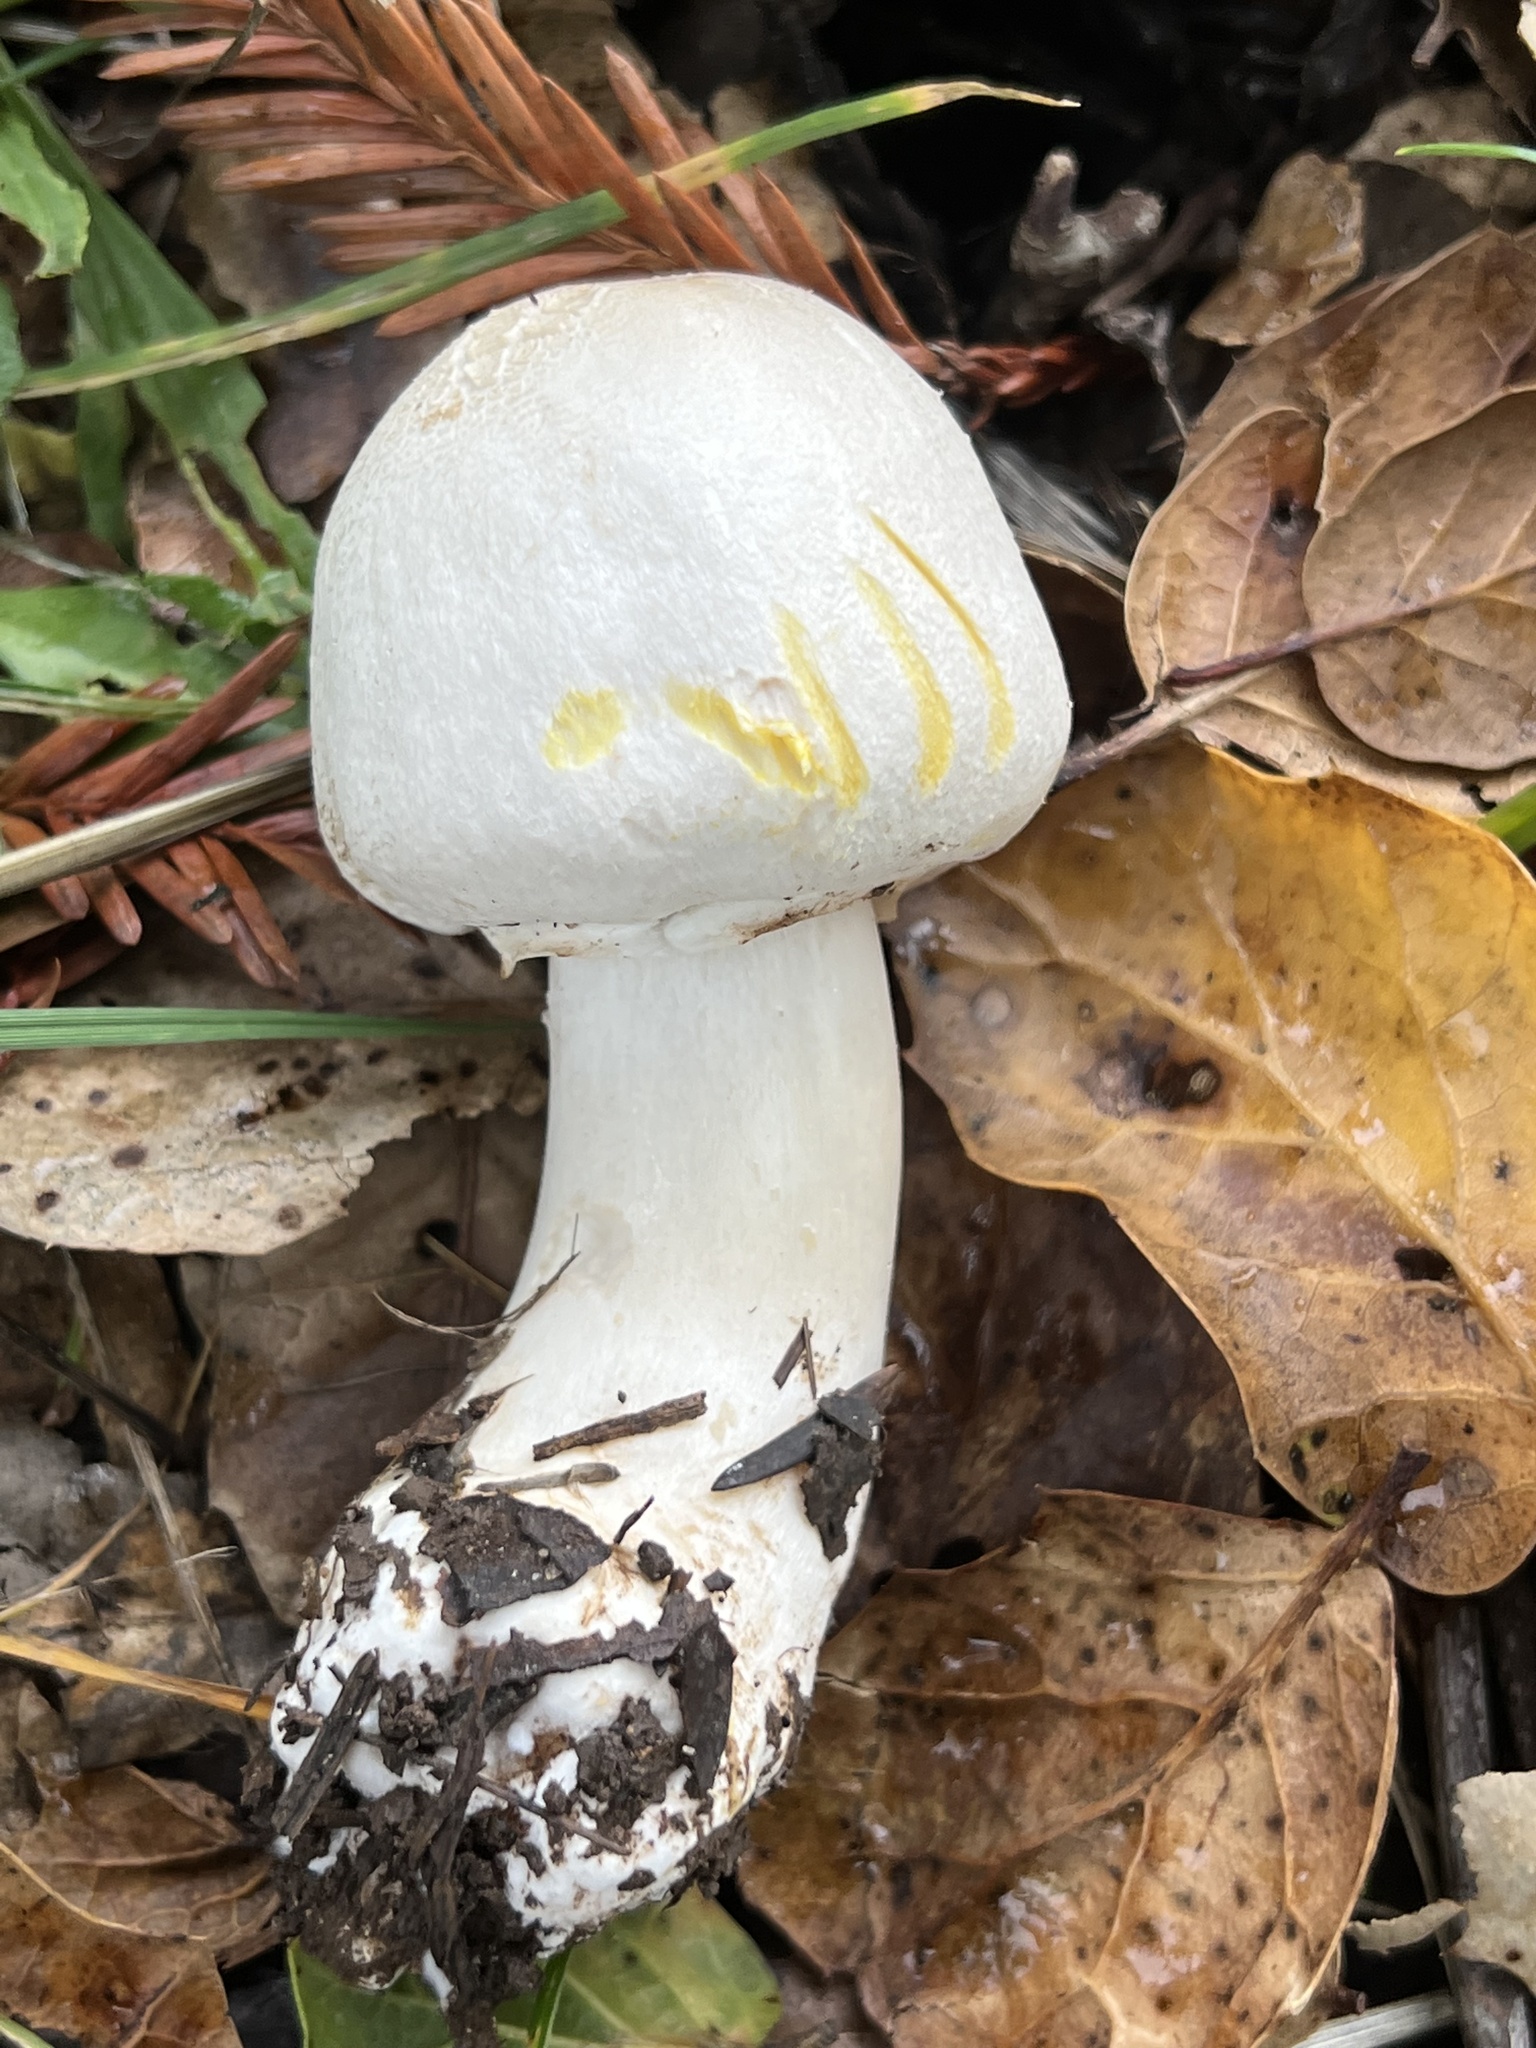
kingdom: Fungi
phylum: Basidiomycota
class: Agaricomycetes
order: Agaricales
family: Agaricaceae
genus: Agaricus
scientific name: Agaricus xanthodermus
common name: Yellow stainer
